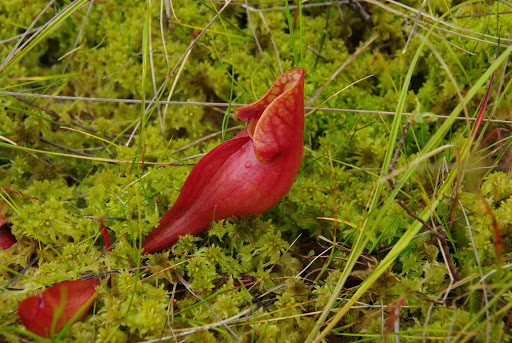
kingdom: Plantae
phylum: Tracheophyta
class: Magnoliopsida
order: Ericales
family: Sarraceniaceae
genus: Sarracenia
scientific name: Sarracenia purpurea
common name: Pitcherplant
